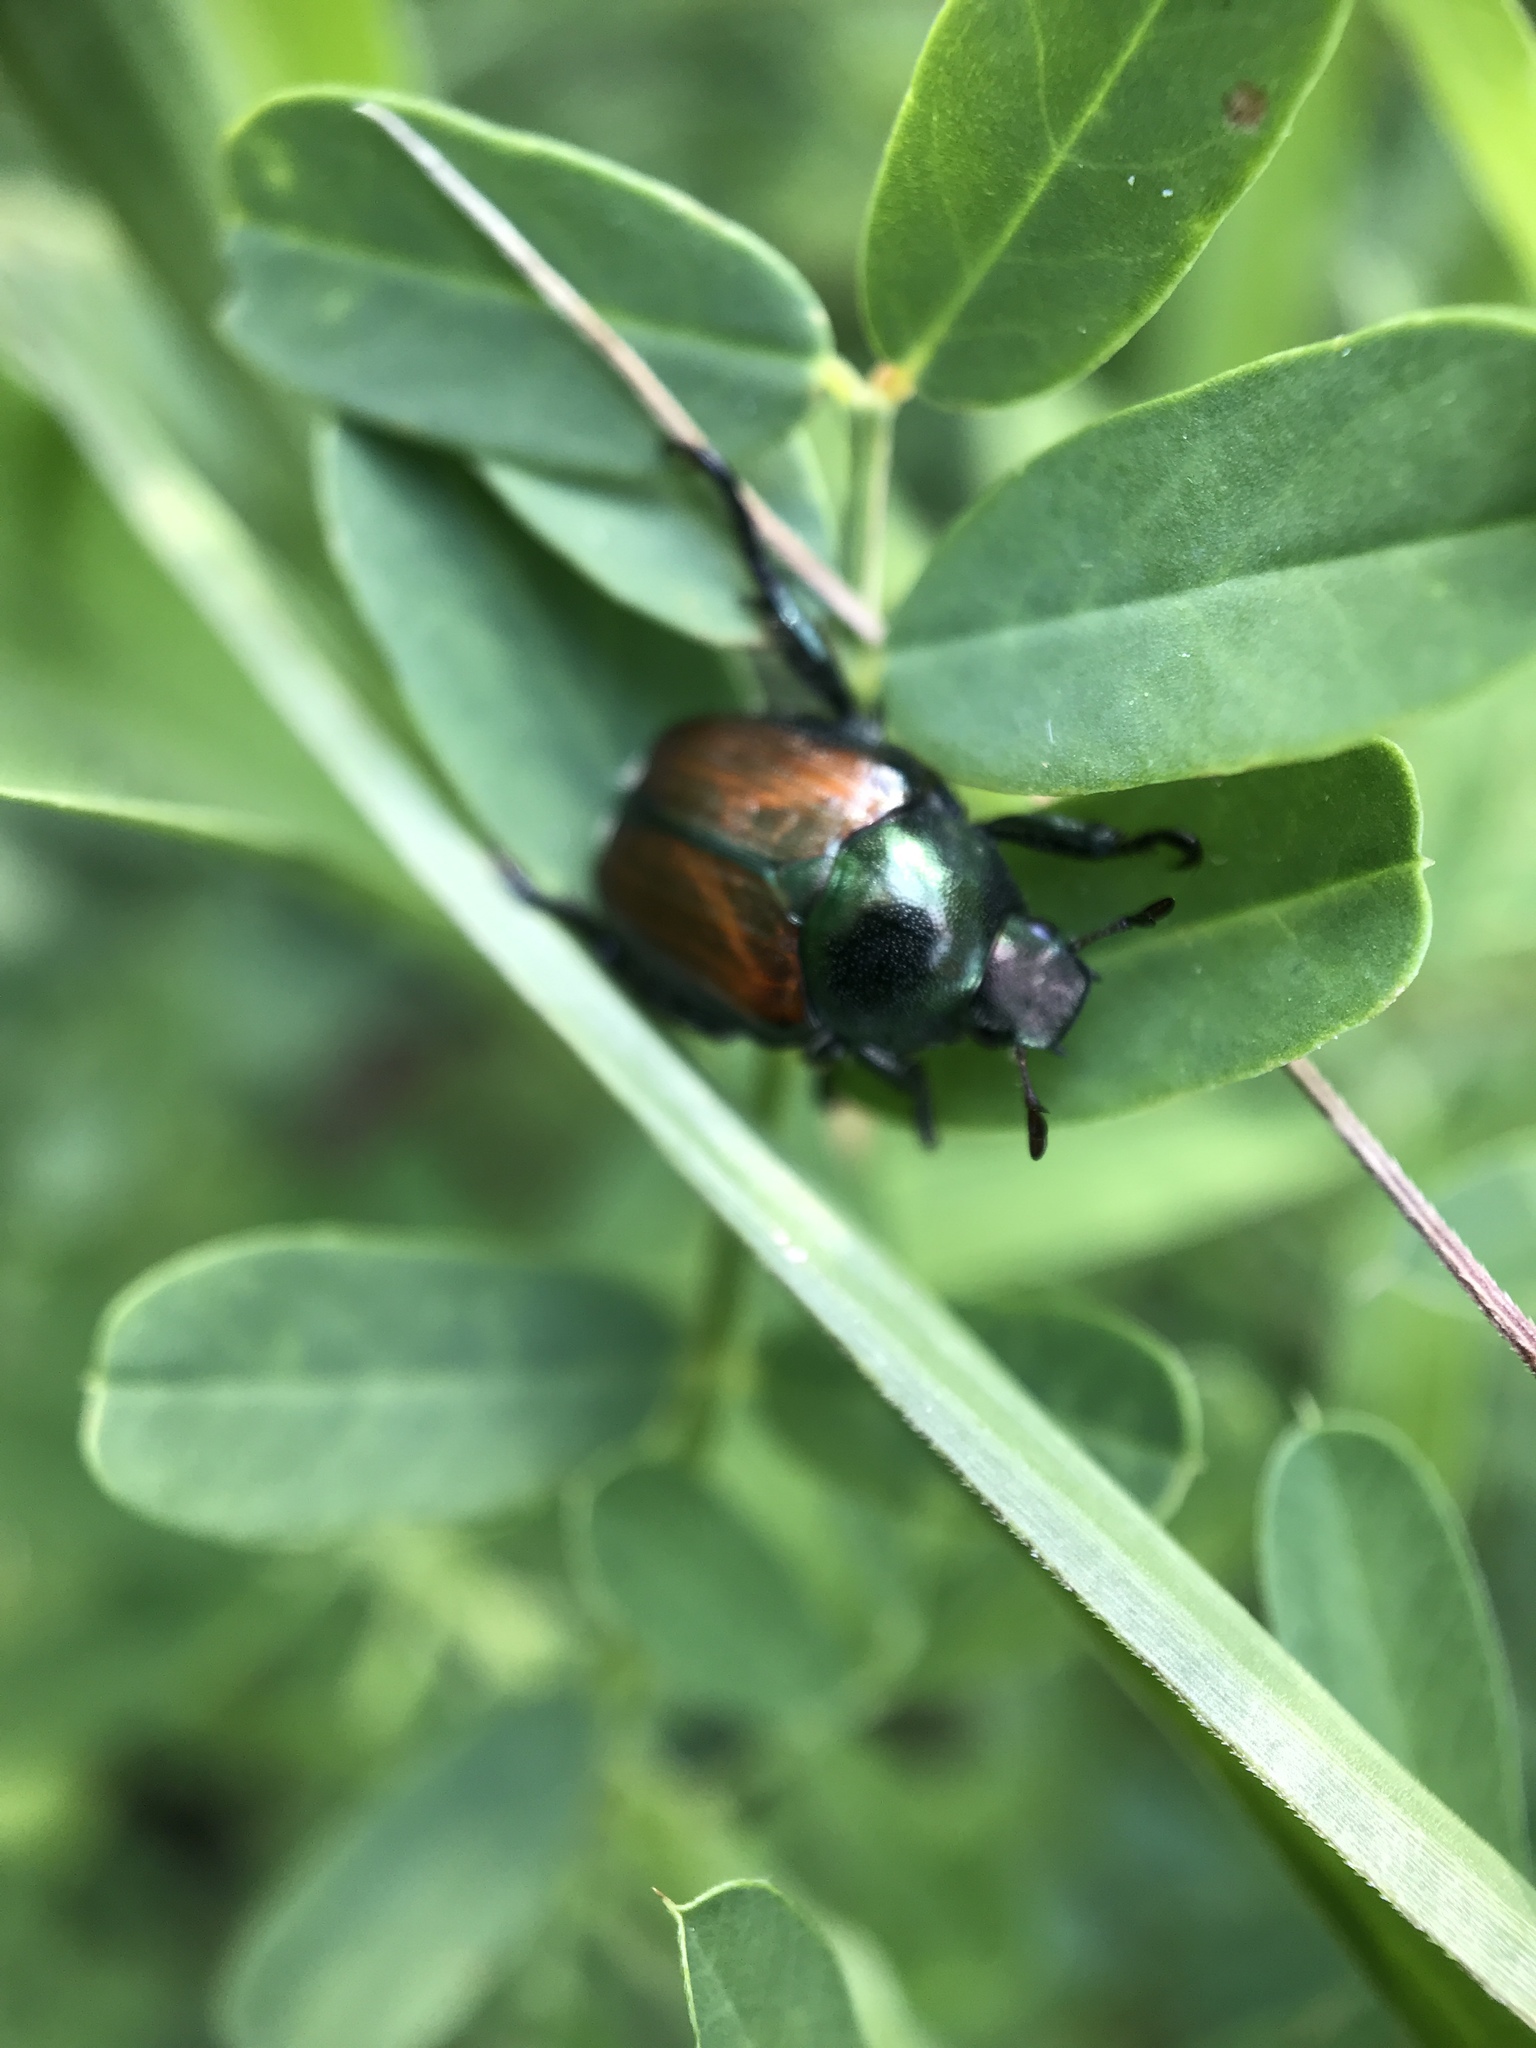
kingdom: Animalia
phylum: Arthropoda
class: Insecta
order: Coleoptera
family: Scarabaeidae
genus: Popillia
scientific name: Popillia japonica
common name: Japanese beetle
